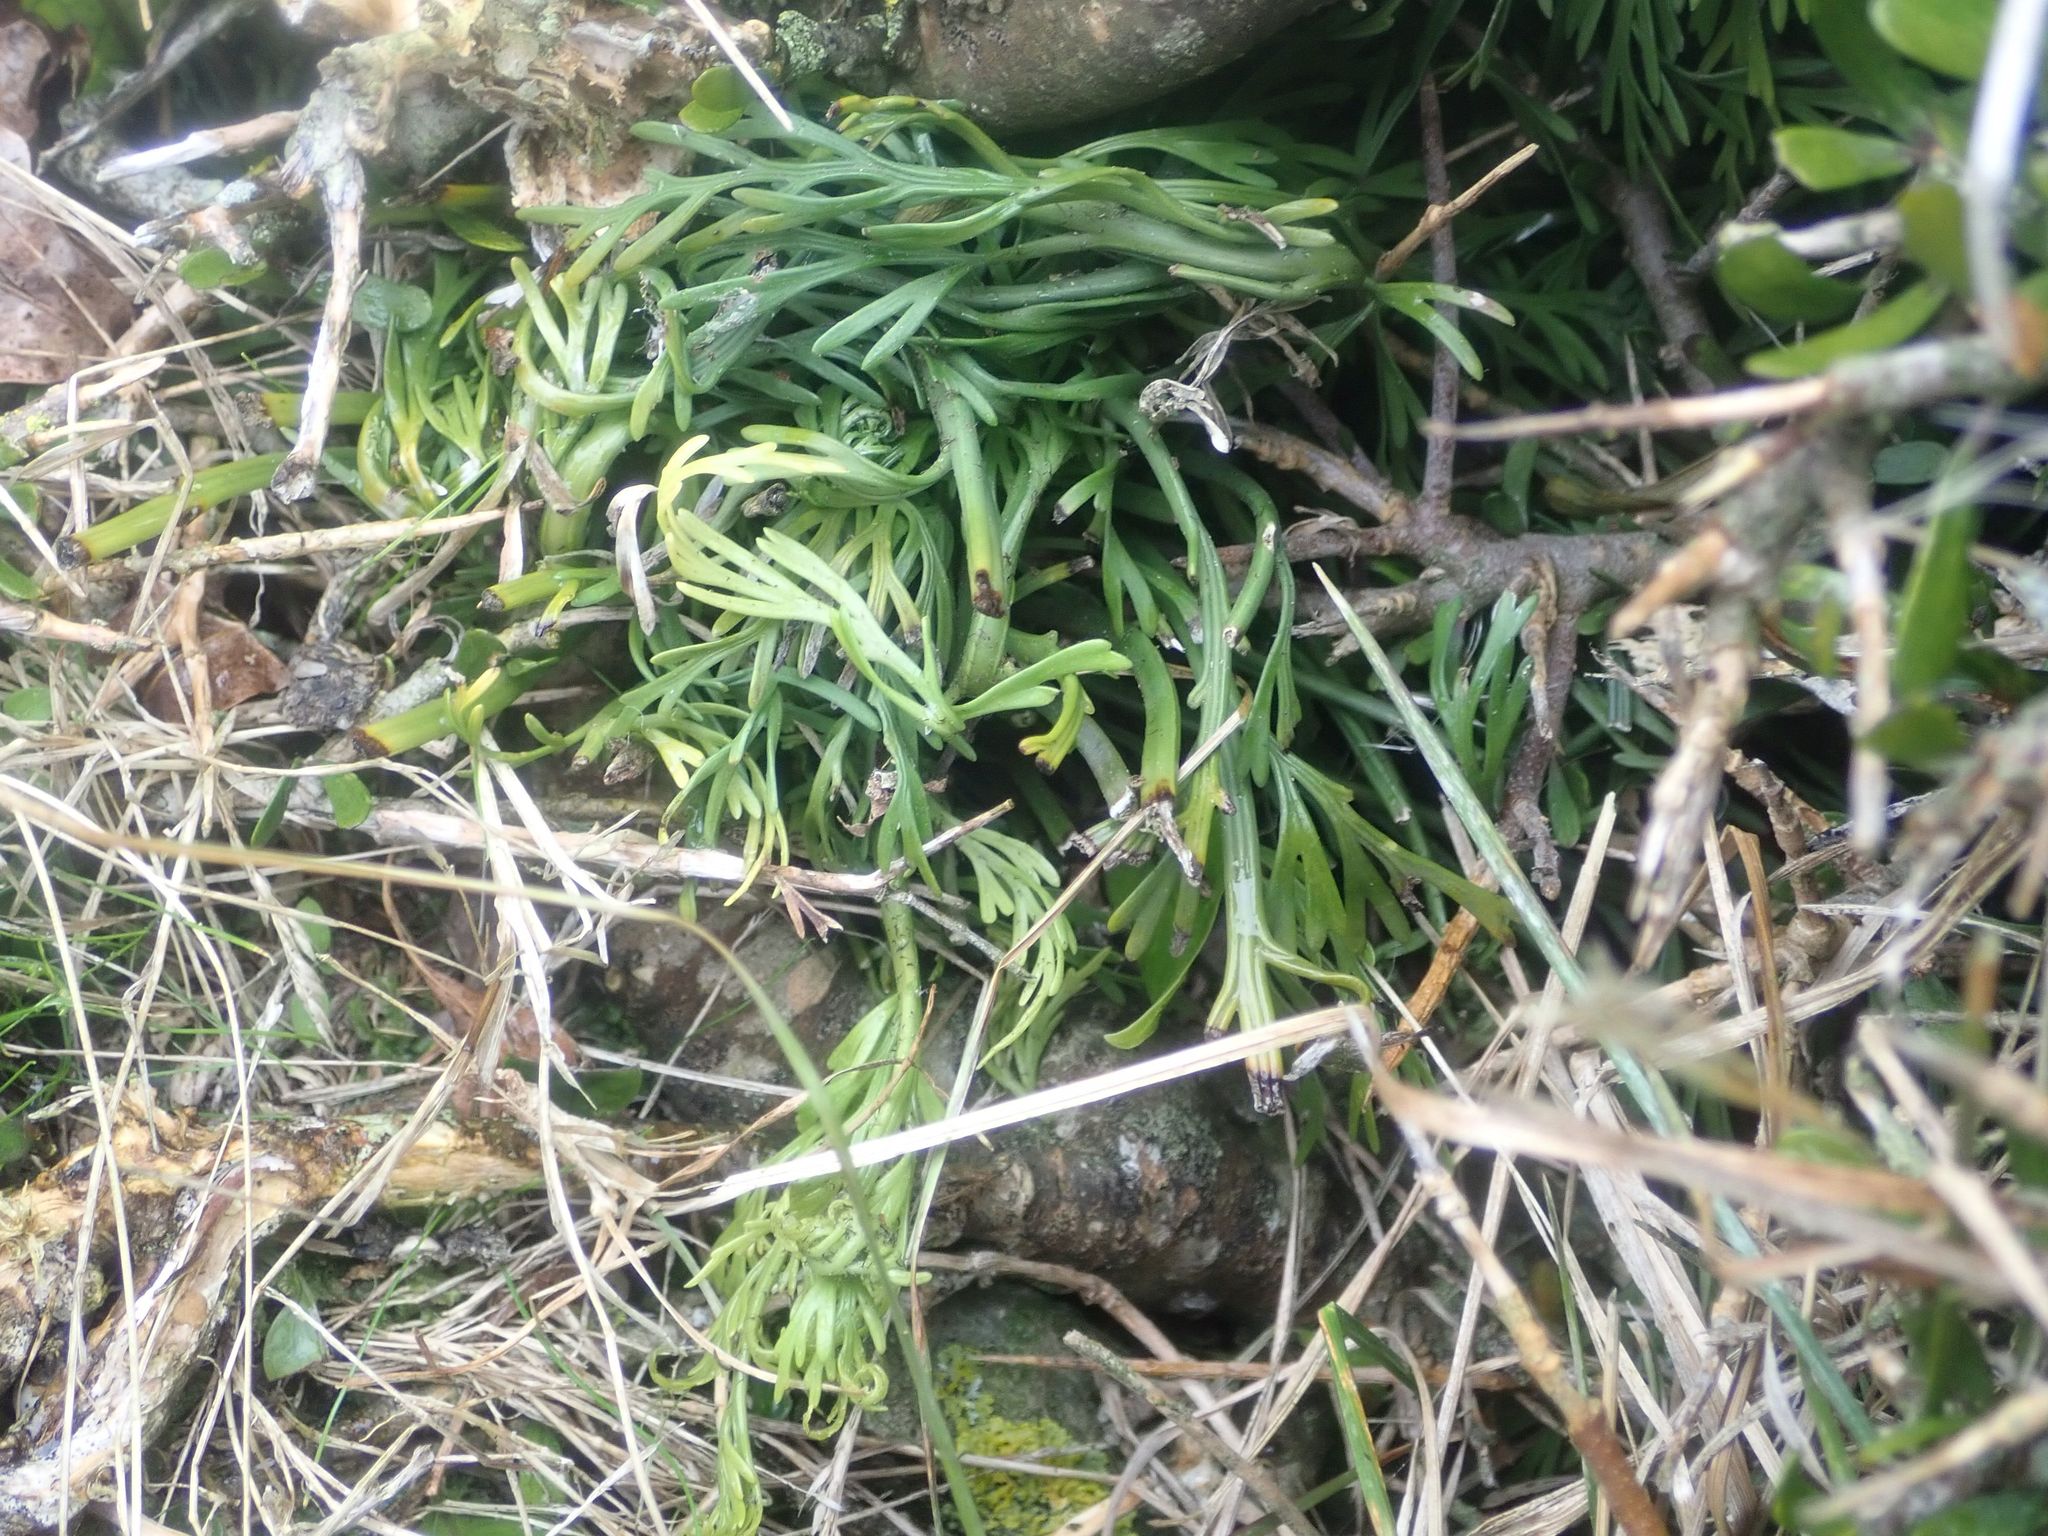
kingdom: Plantae
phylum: Tracheophyta
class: Polypodiopsida
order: Polypodiales
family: Aspleniaceae
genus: Asplenium
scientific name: Asplenium flaccidum
